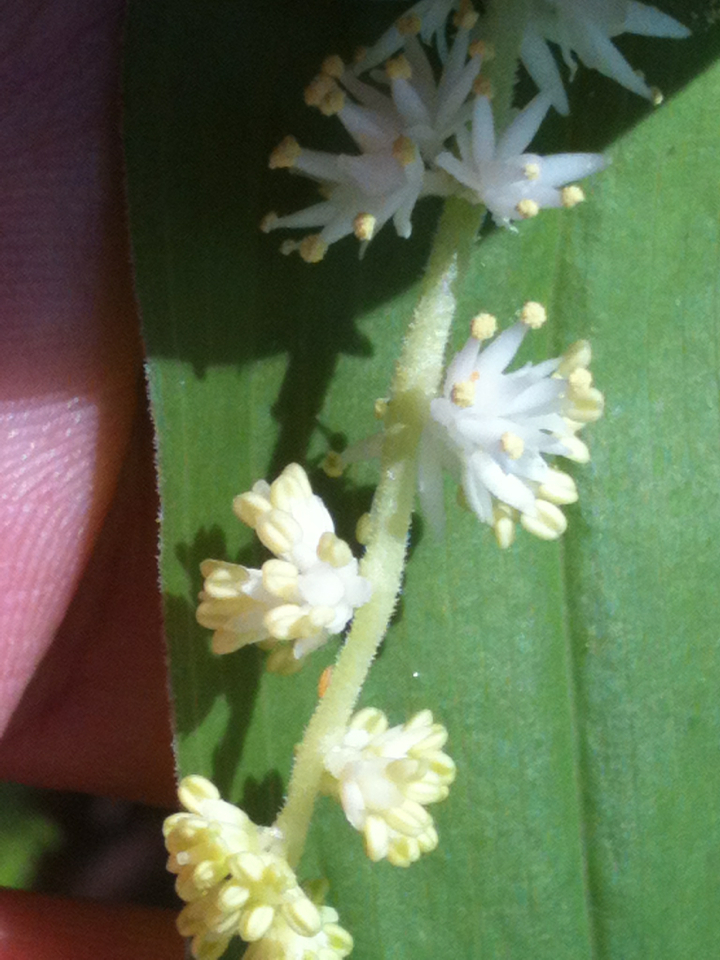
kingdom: Plantae
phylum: Tracheophyta
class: Liliopsida
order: Asparagales
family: Asparagaceae
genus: Maianthemum
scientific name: Maianthemum racemosum
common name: False spikenard
